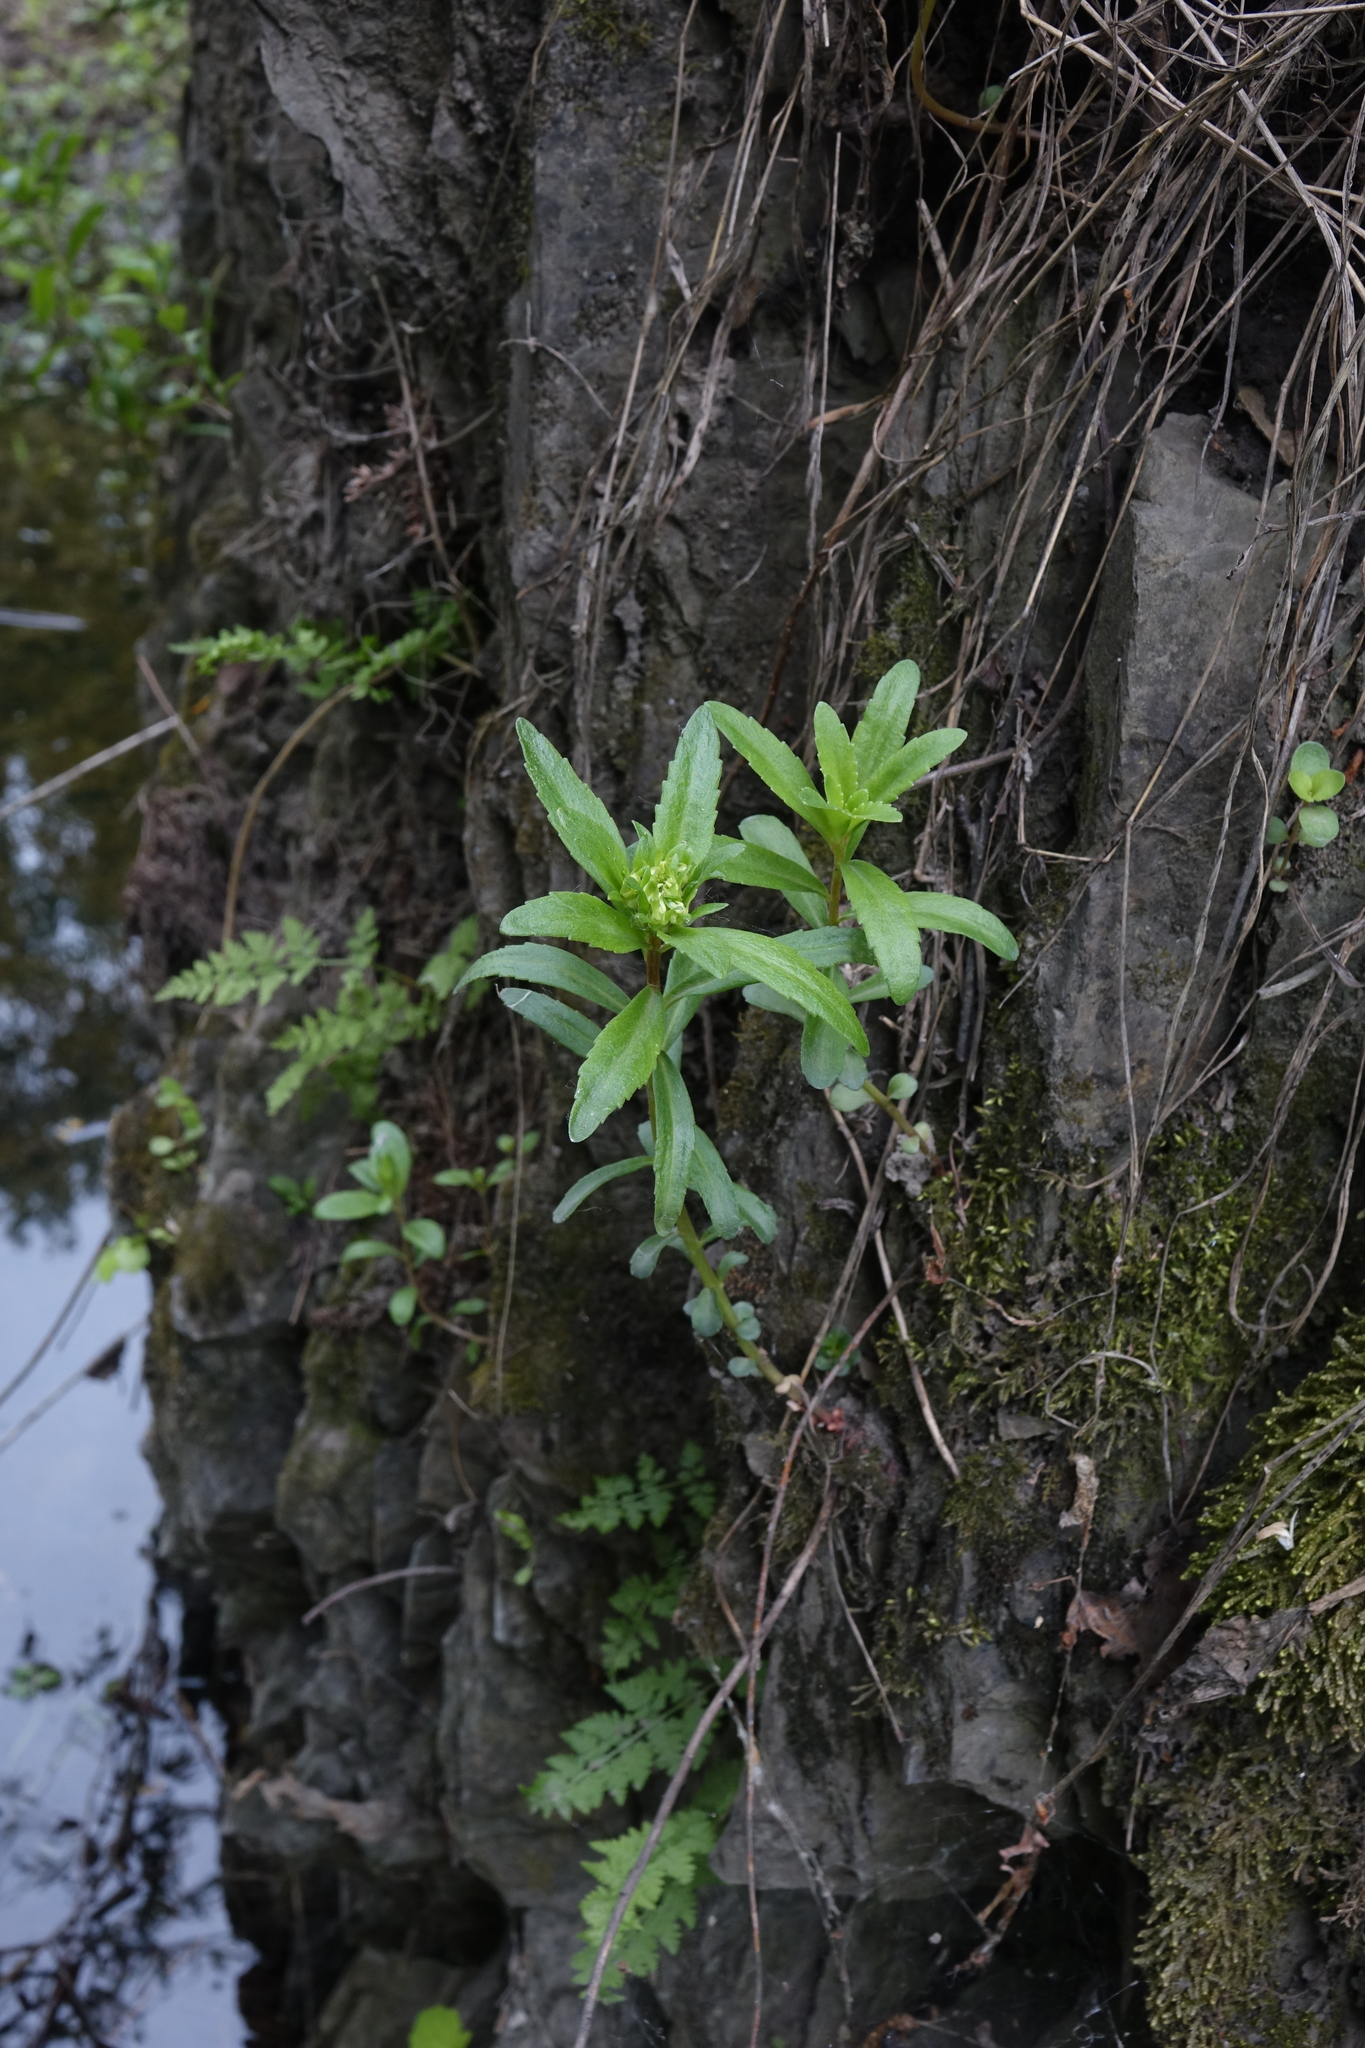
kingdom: Plantae
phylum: Tracheophyta
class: Magnoliopsida
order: Saxifragales
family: Crassulaceae
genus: Phedimus
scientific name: Phedimus aizoon
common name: Orpin aizoon
